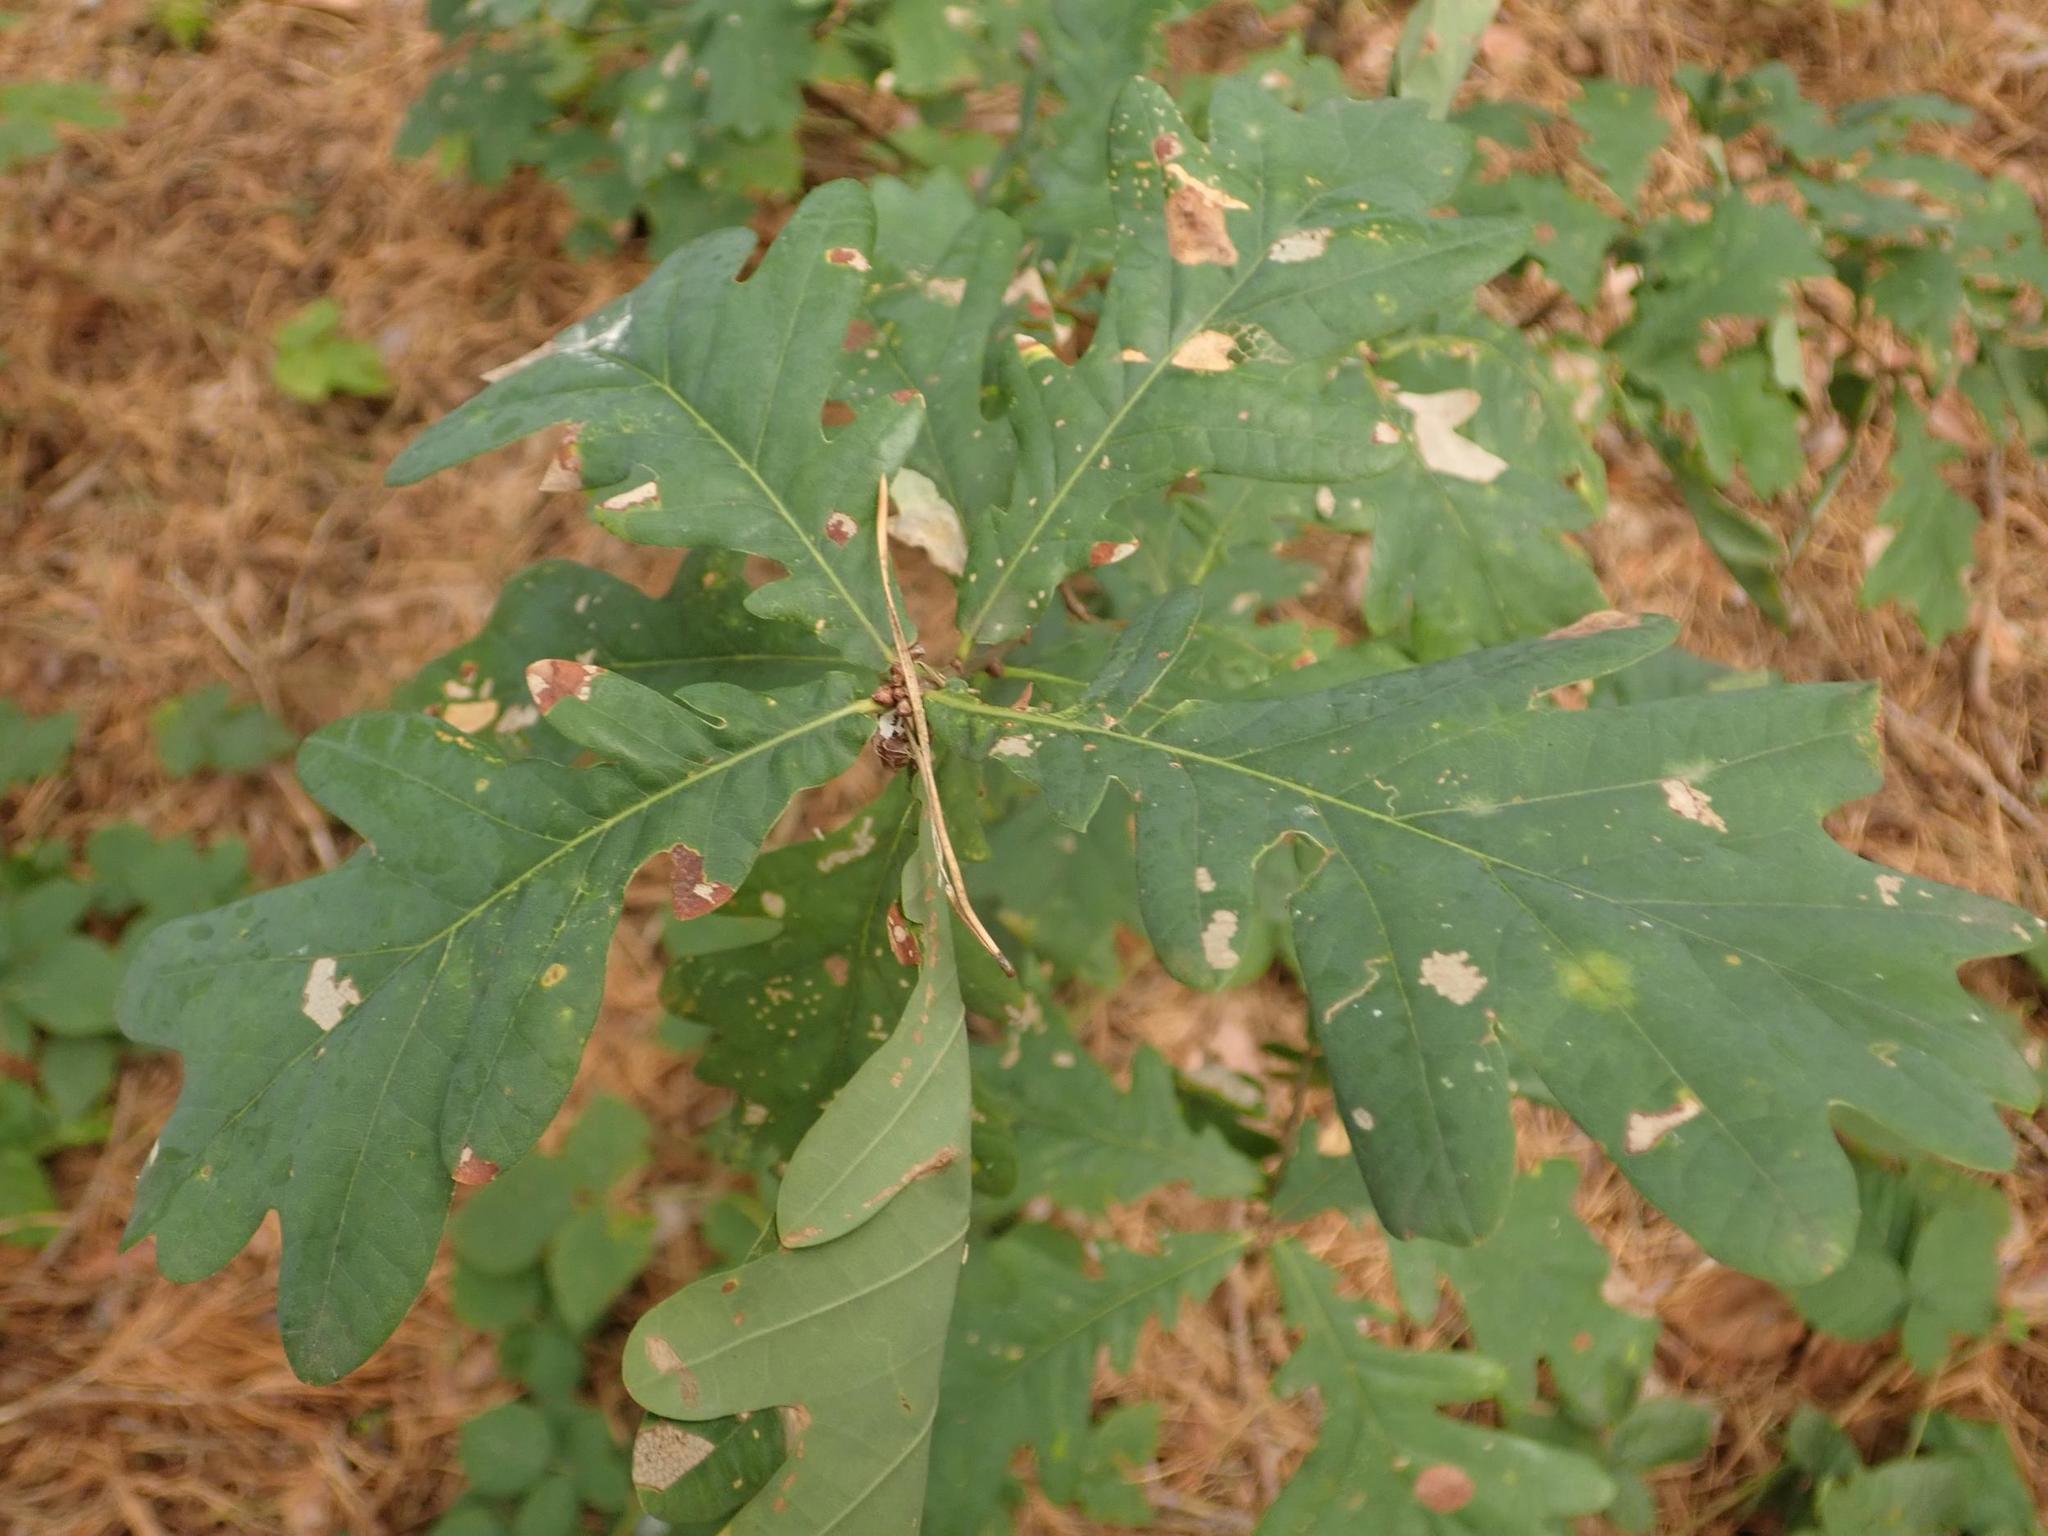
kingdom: Plantae
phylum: Tracheophyta
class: Magnoliopsida
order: Fagales
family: Fagaceae
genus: Quercus
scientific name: Quercus robur
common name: Pedunculate oak
